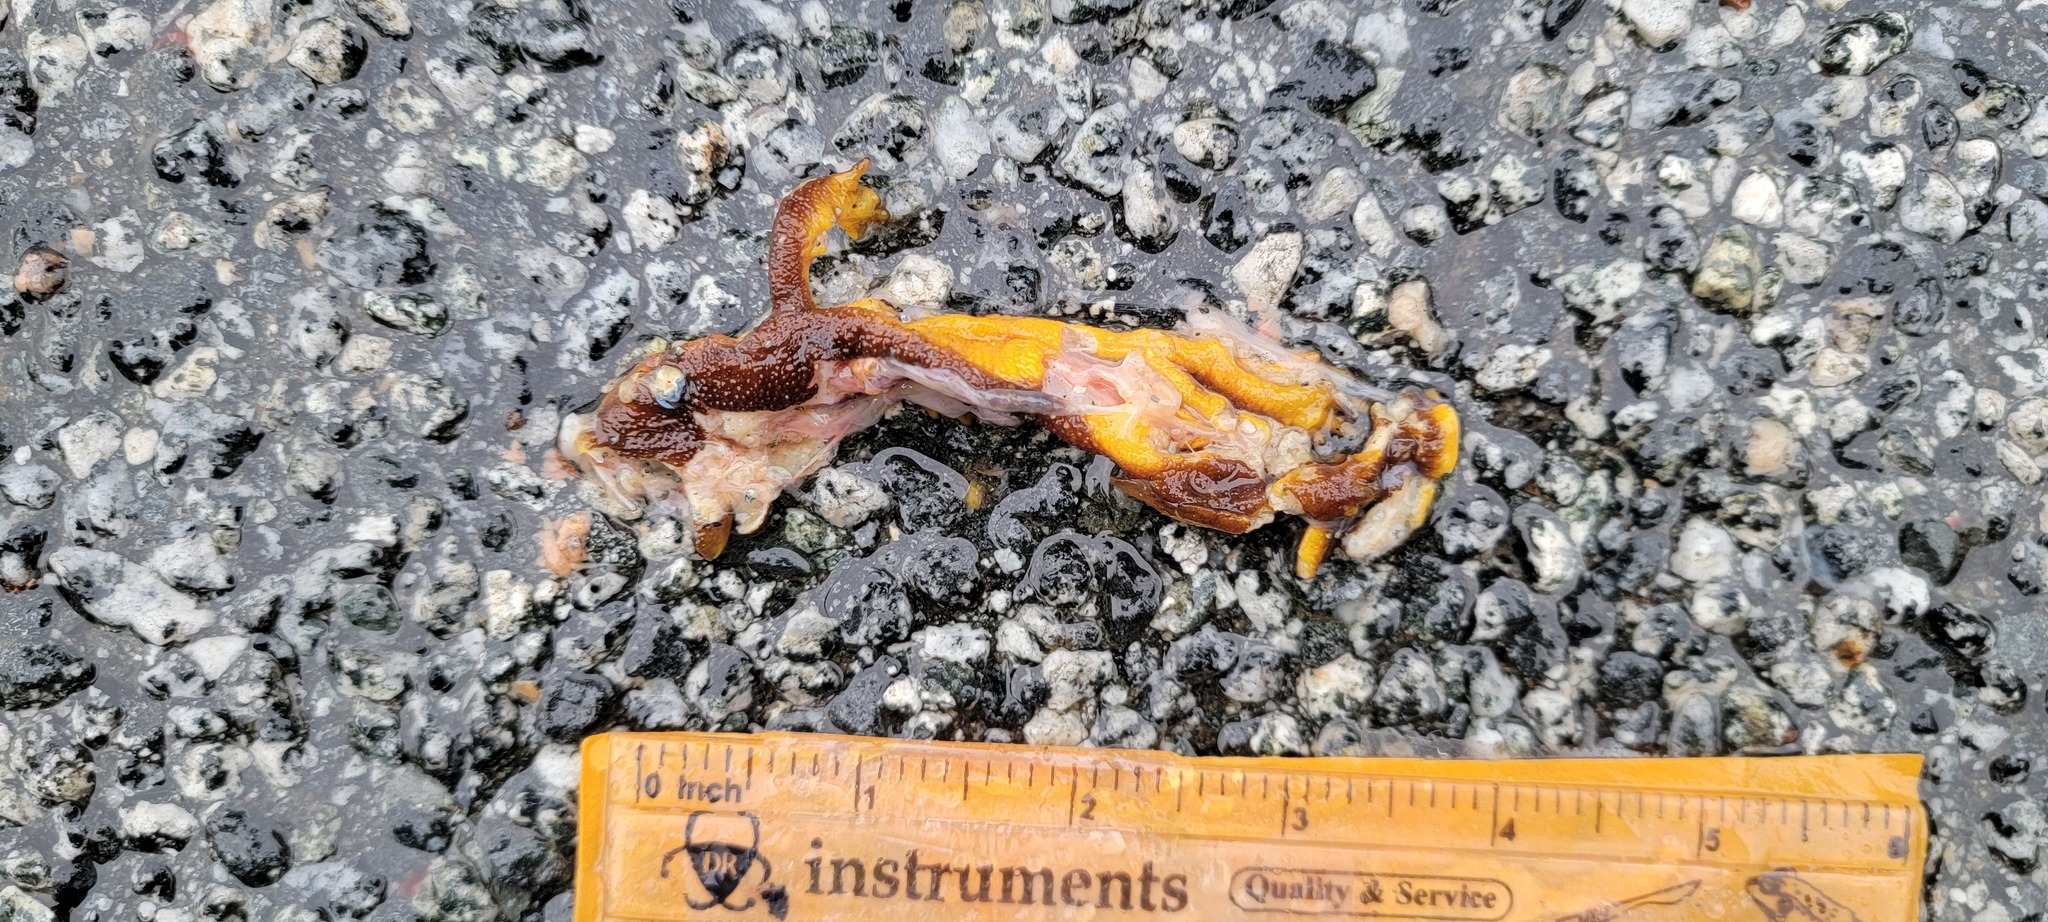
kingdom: Animalia
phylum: Chordata
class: Amphibia
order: Caudata
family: Salamandridae
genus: Taricha
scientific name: Taricha
